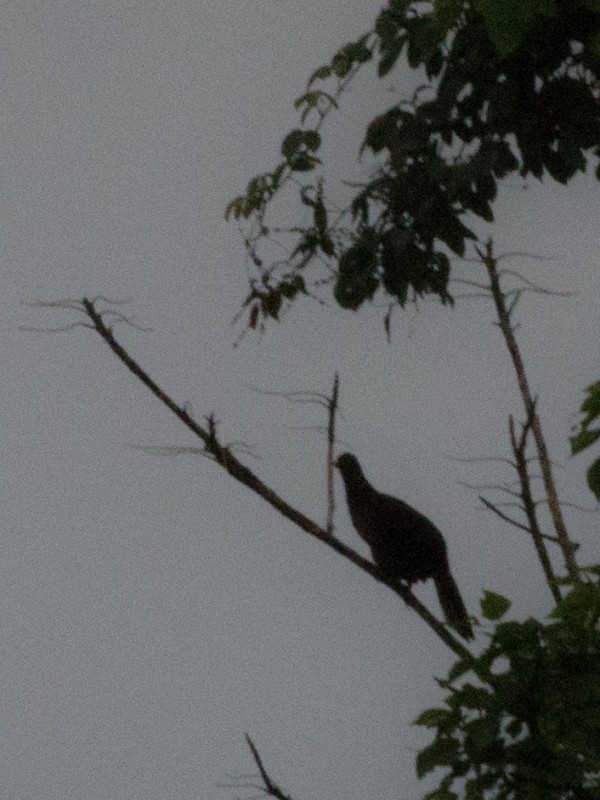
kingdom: Animalia
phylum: Chordata
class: Aves
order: Galliformes
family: Cracidae
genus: Ortalis
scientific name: Ortalis cinereiceps
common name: Grey-headed chachalaca
